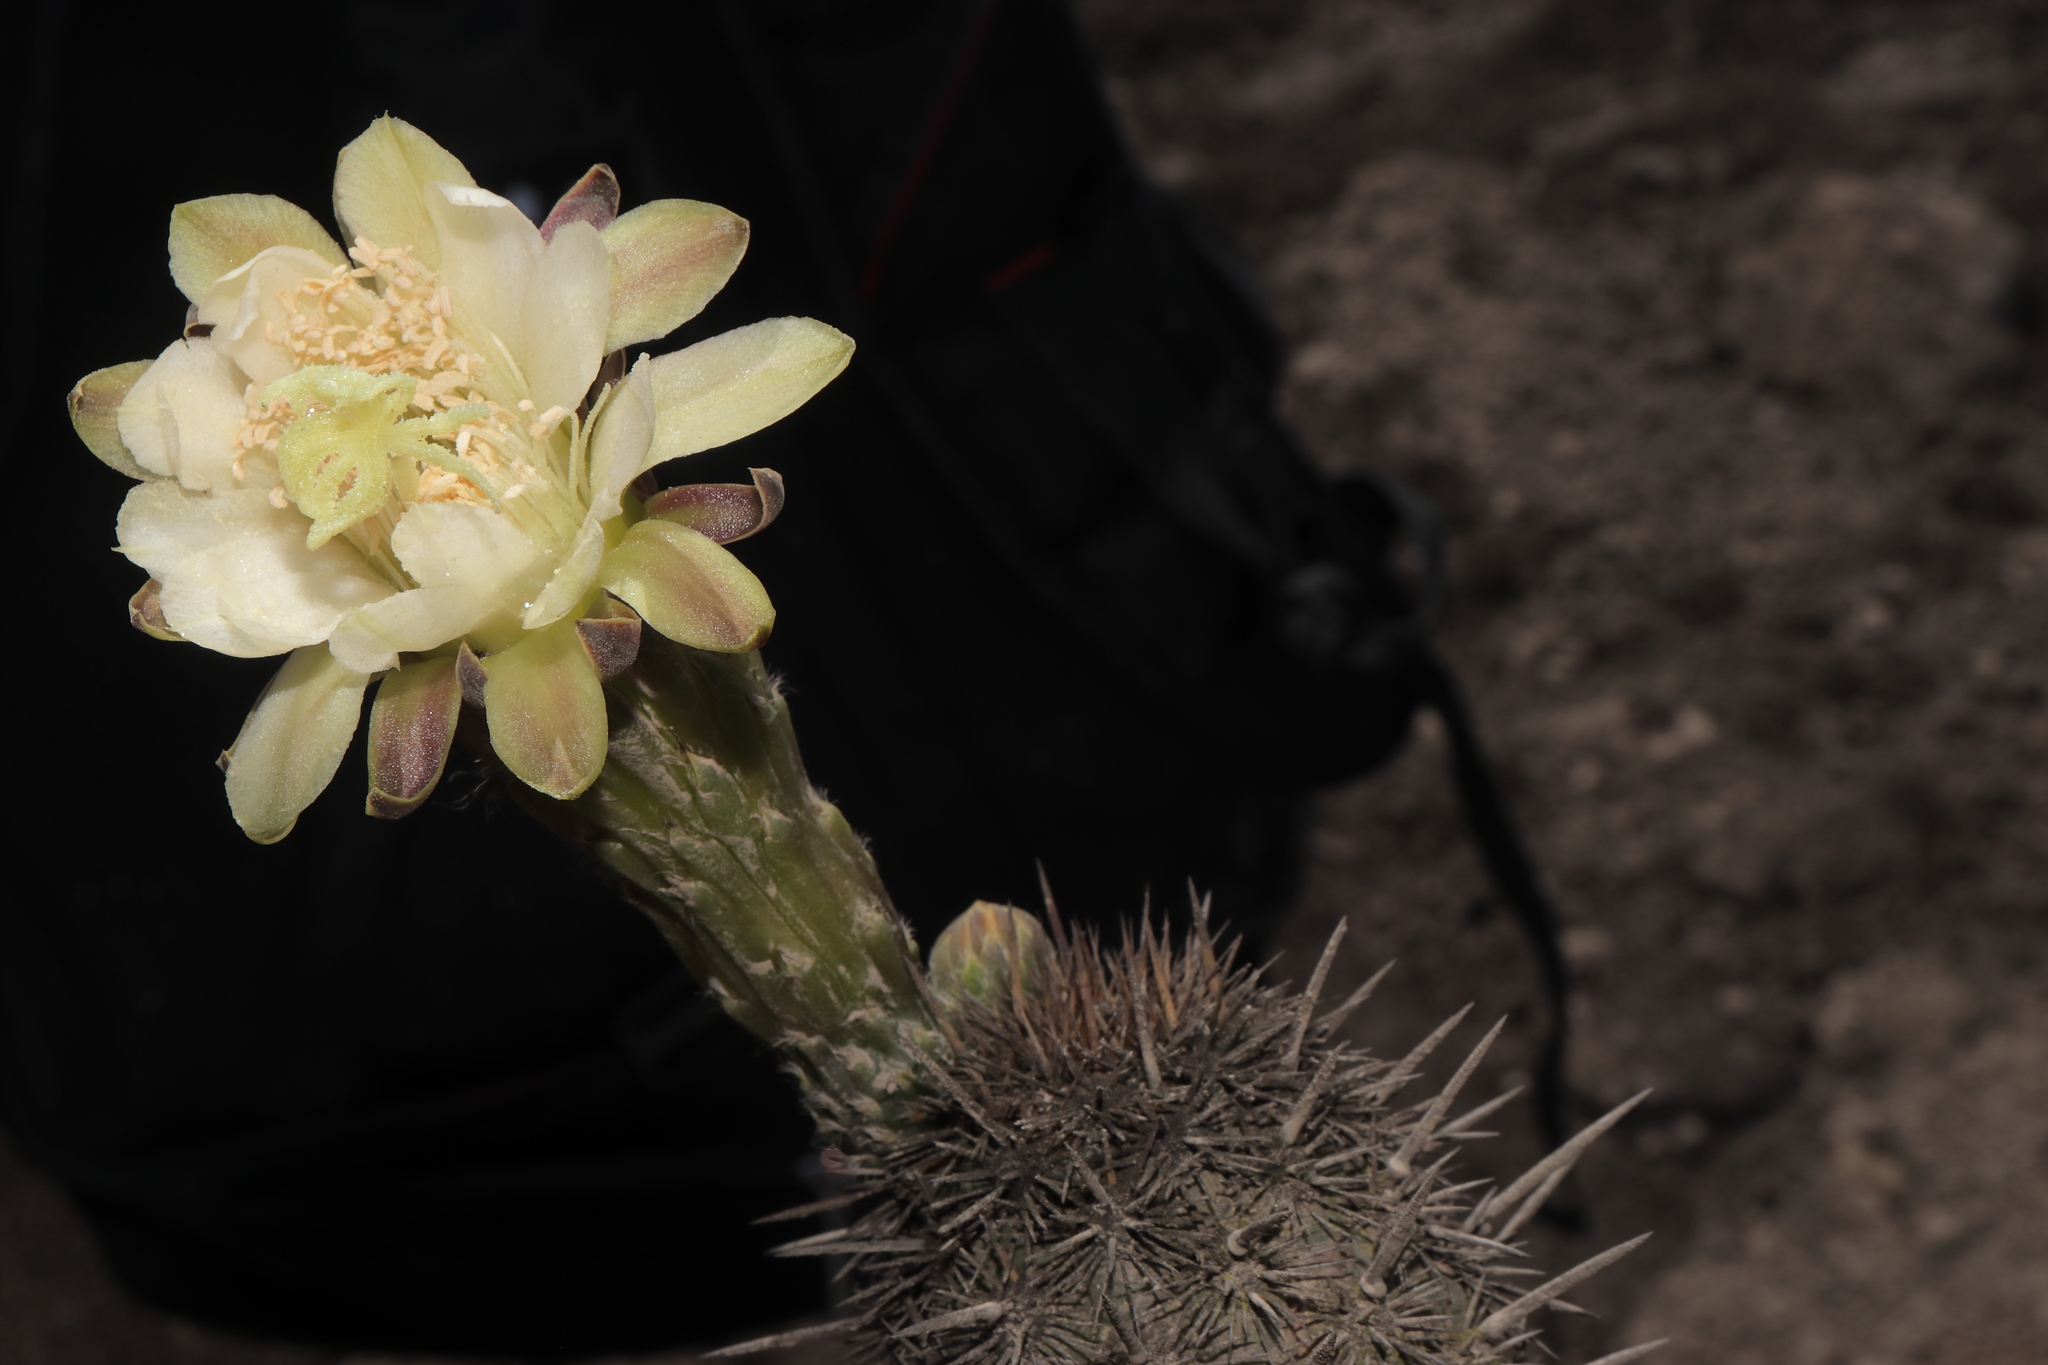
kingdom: Plantae
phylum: Tracheophyta
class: Magnoliopsida
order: Caryophyllales
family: Cactaceae
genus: Haageocereus
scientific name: Haageocereus acranthus
